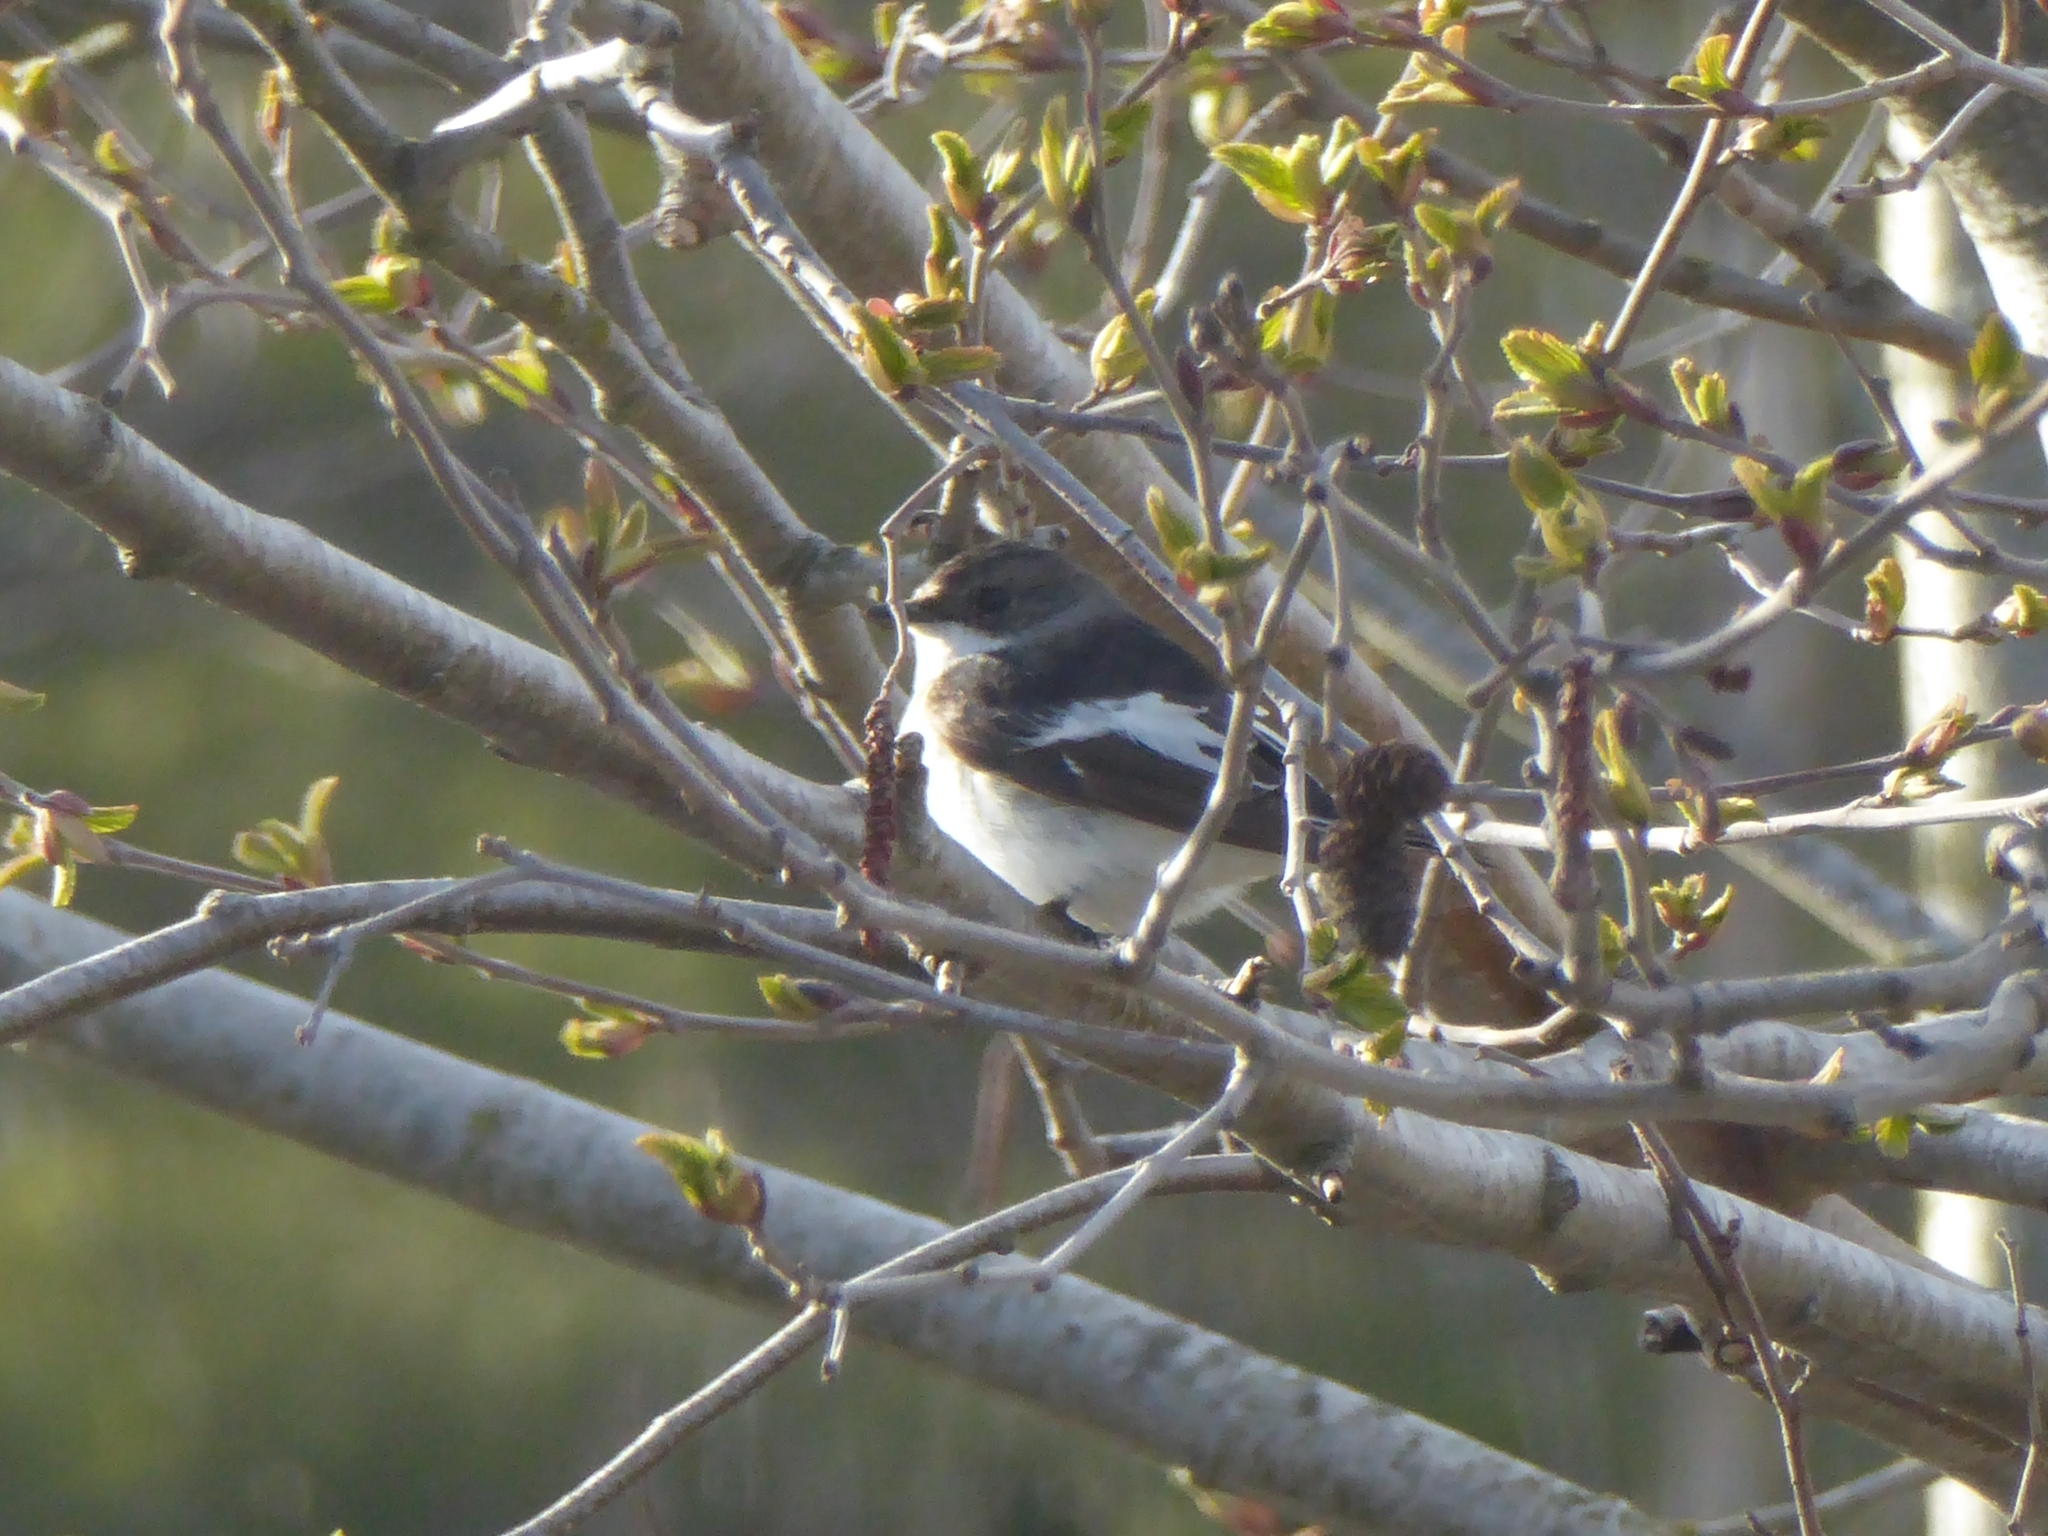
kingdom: Animalia
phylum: Chordata
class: Aves
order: Passeriformes
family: Muscicapidae
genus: Ficedula
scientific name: Ficedula hypoleuca
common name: European pied flycatcher
